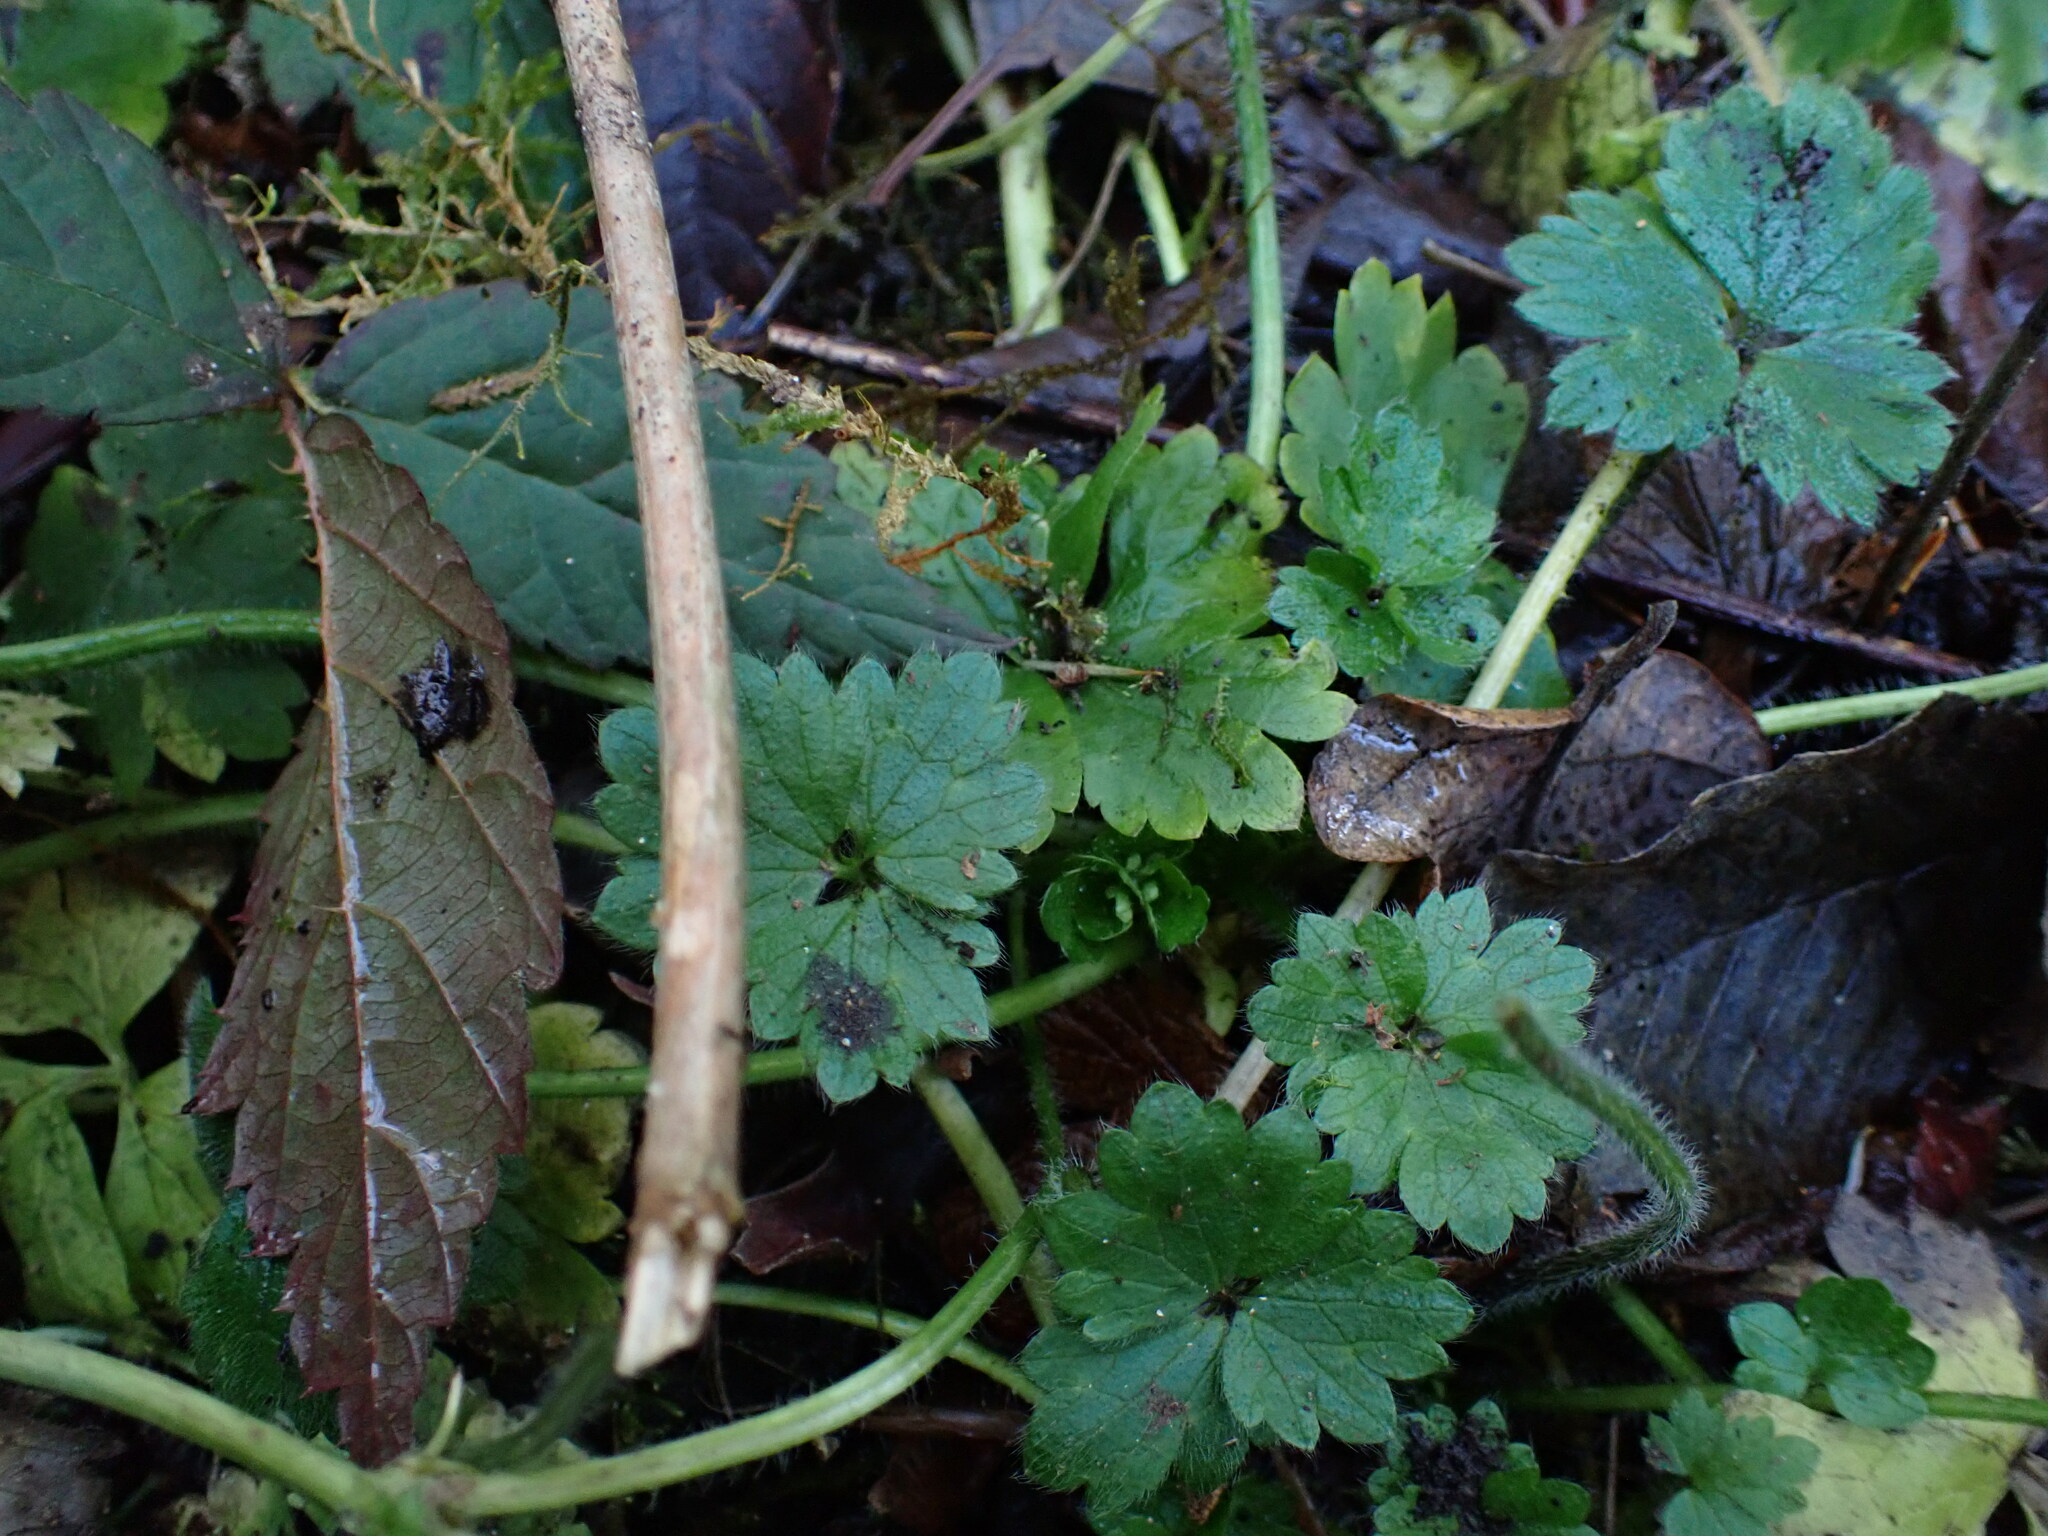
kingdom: Plantae
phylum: Tracheophyta
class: Magnoliopsida
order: Ranunculales
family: Ranunculaceae
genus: Ranunculus
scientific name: Ranunculus repens
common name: Creeping buttercup
